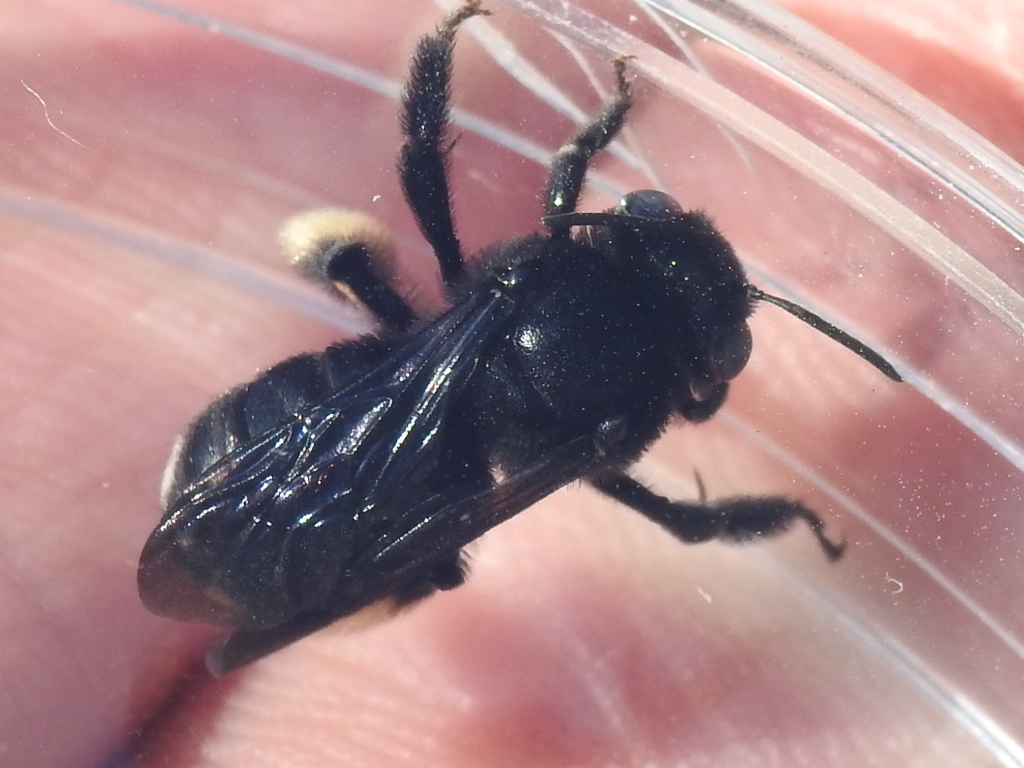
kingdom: Animalia
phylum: Arthropoda
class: Insecta
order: Hymenoptera
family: Apidae
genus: Melissodes
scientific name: Melissodes bimaculatus
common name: Two-spotted long-horned bee
